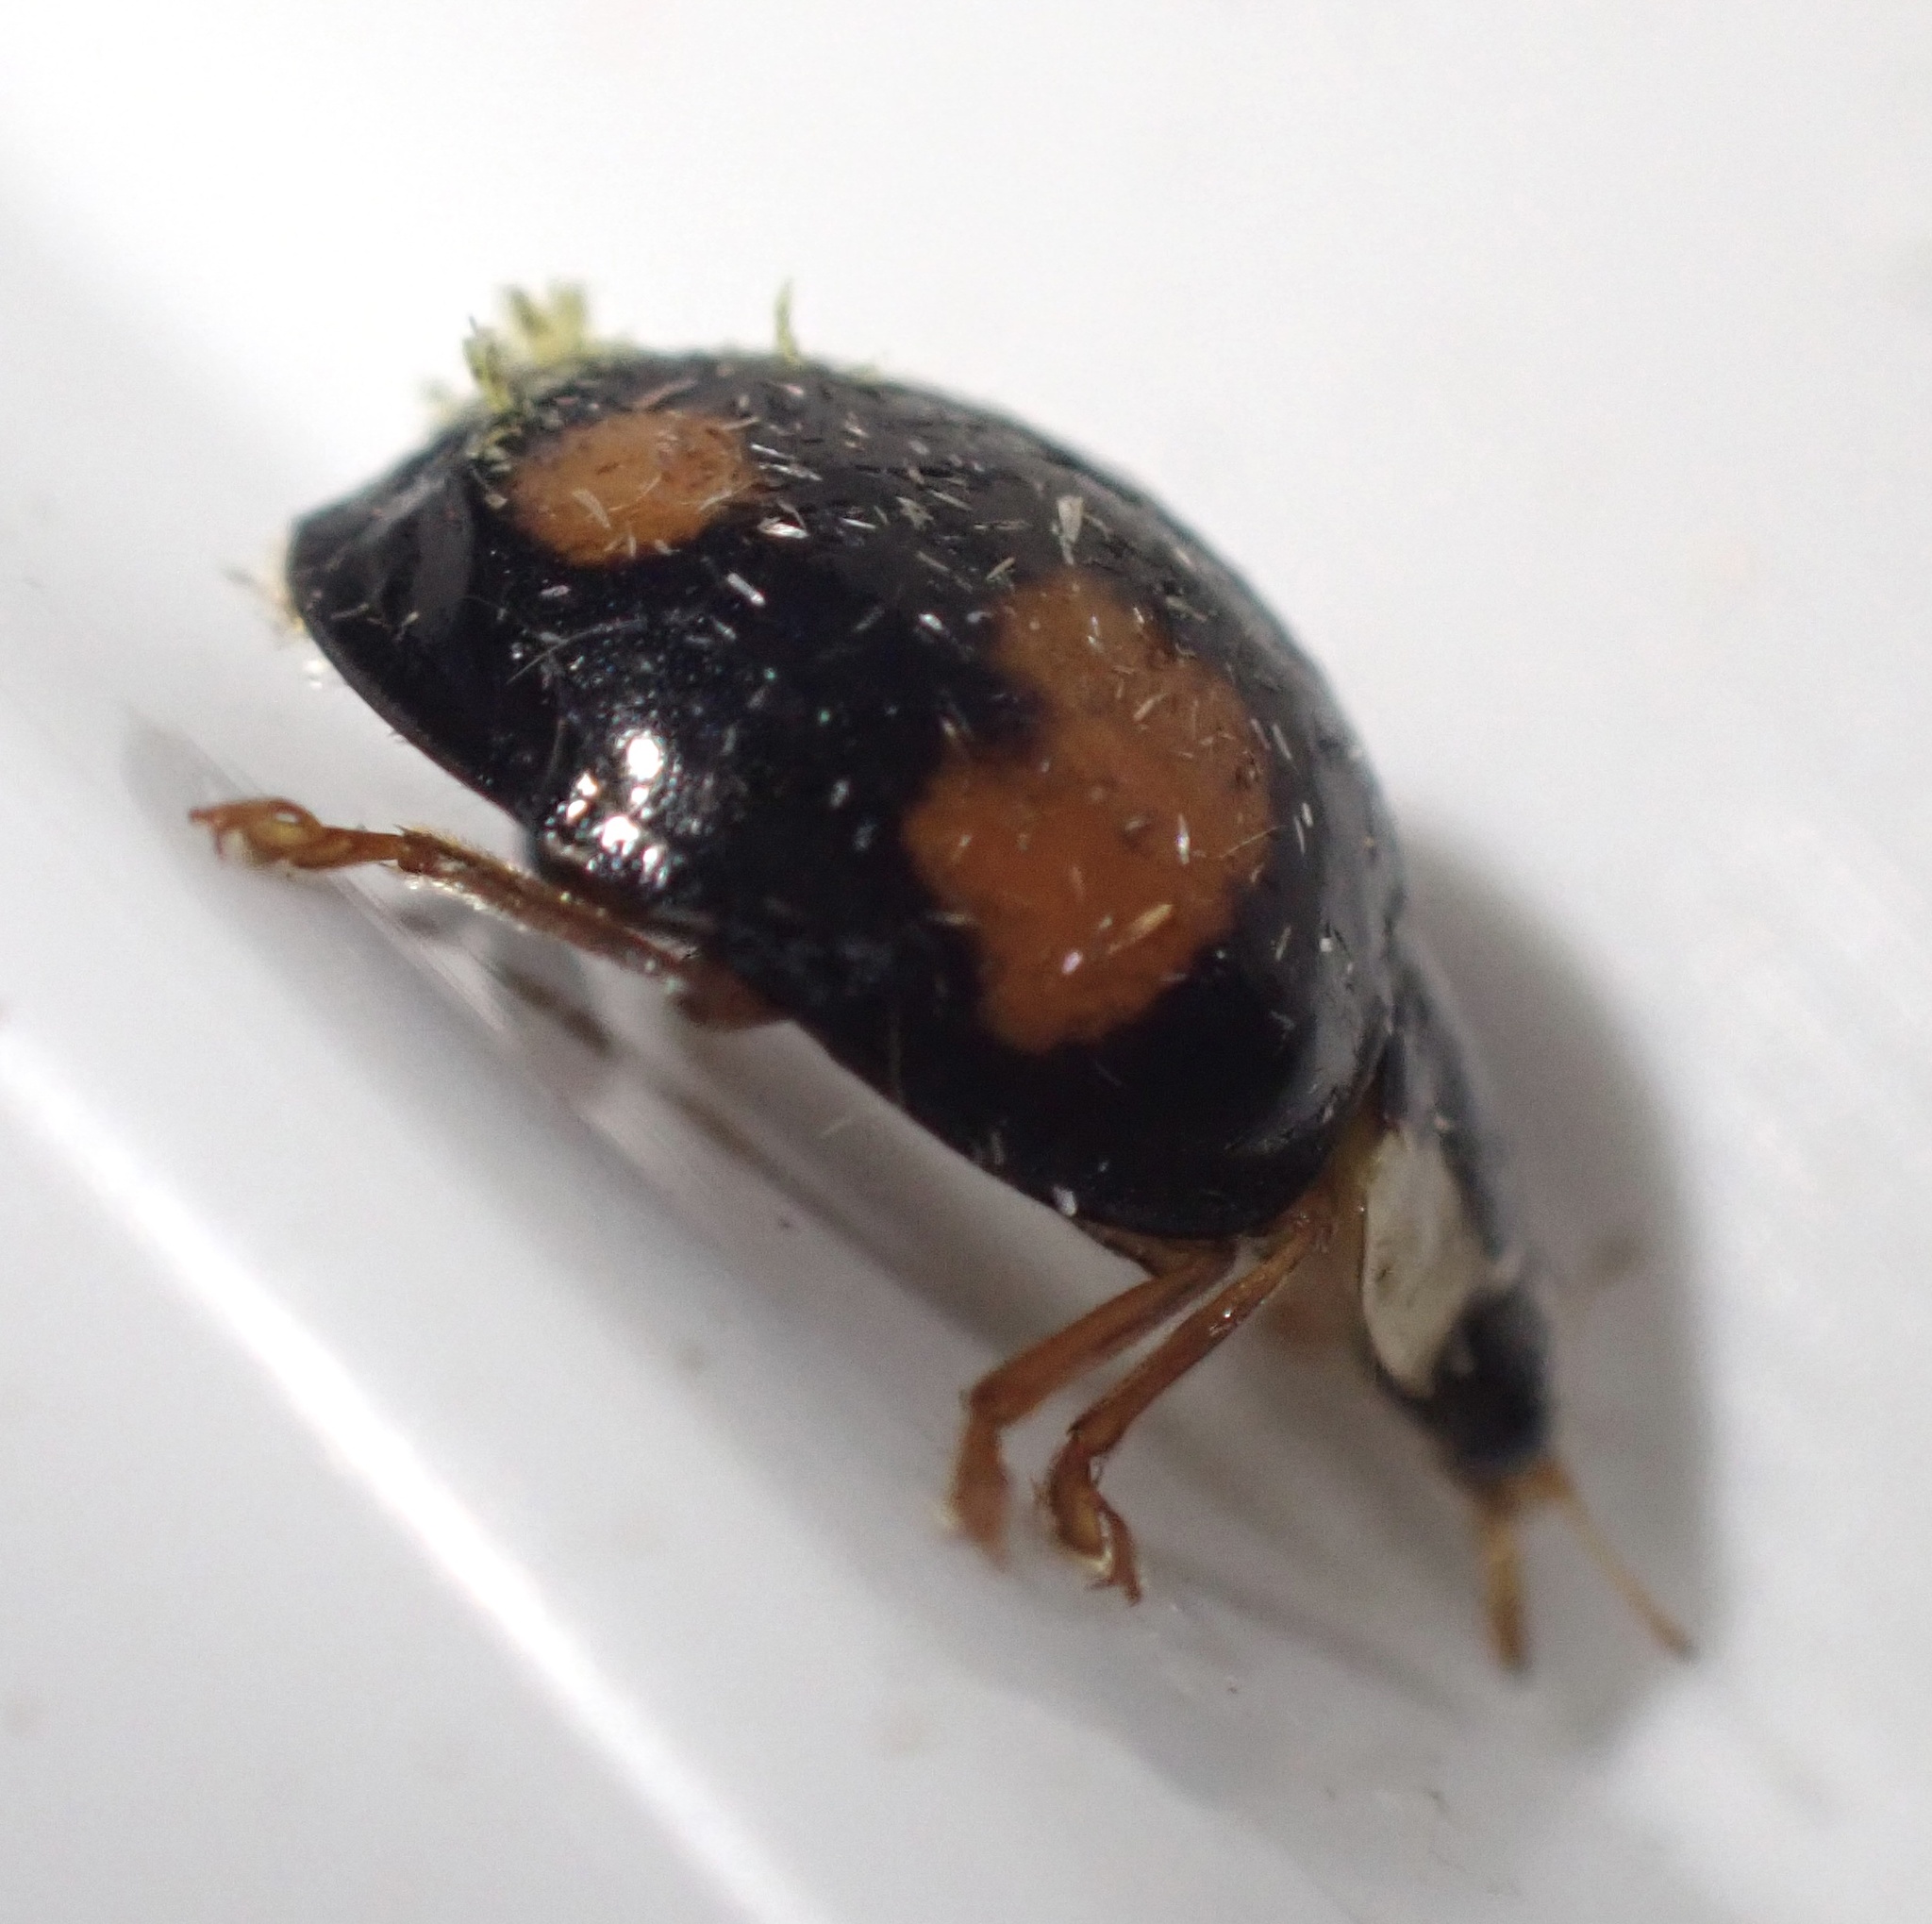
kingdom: Animalia
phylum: Arthropoda
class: Insecta
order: Coleoptera
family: Coccinellidae
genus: Harmonia
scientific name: Harmonia axyridis
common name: Harlequin ladybird
